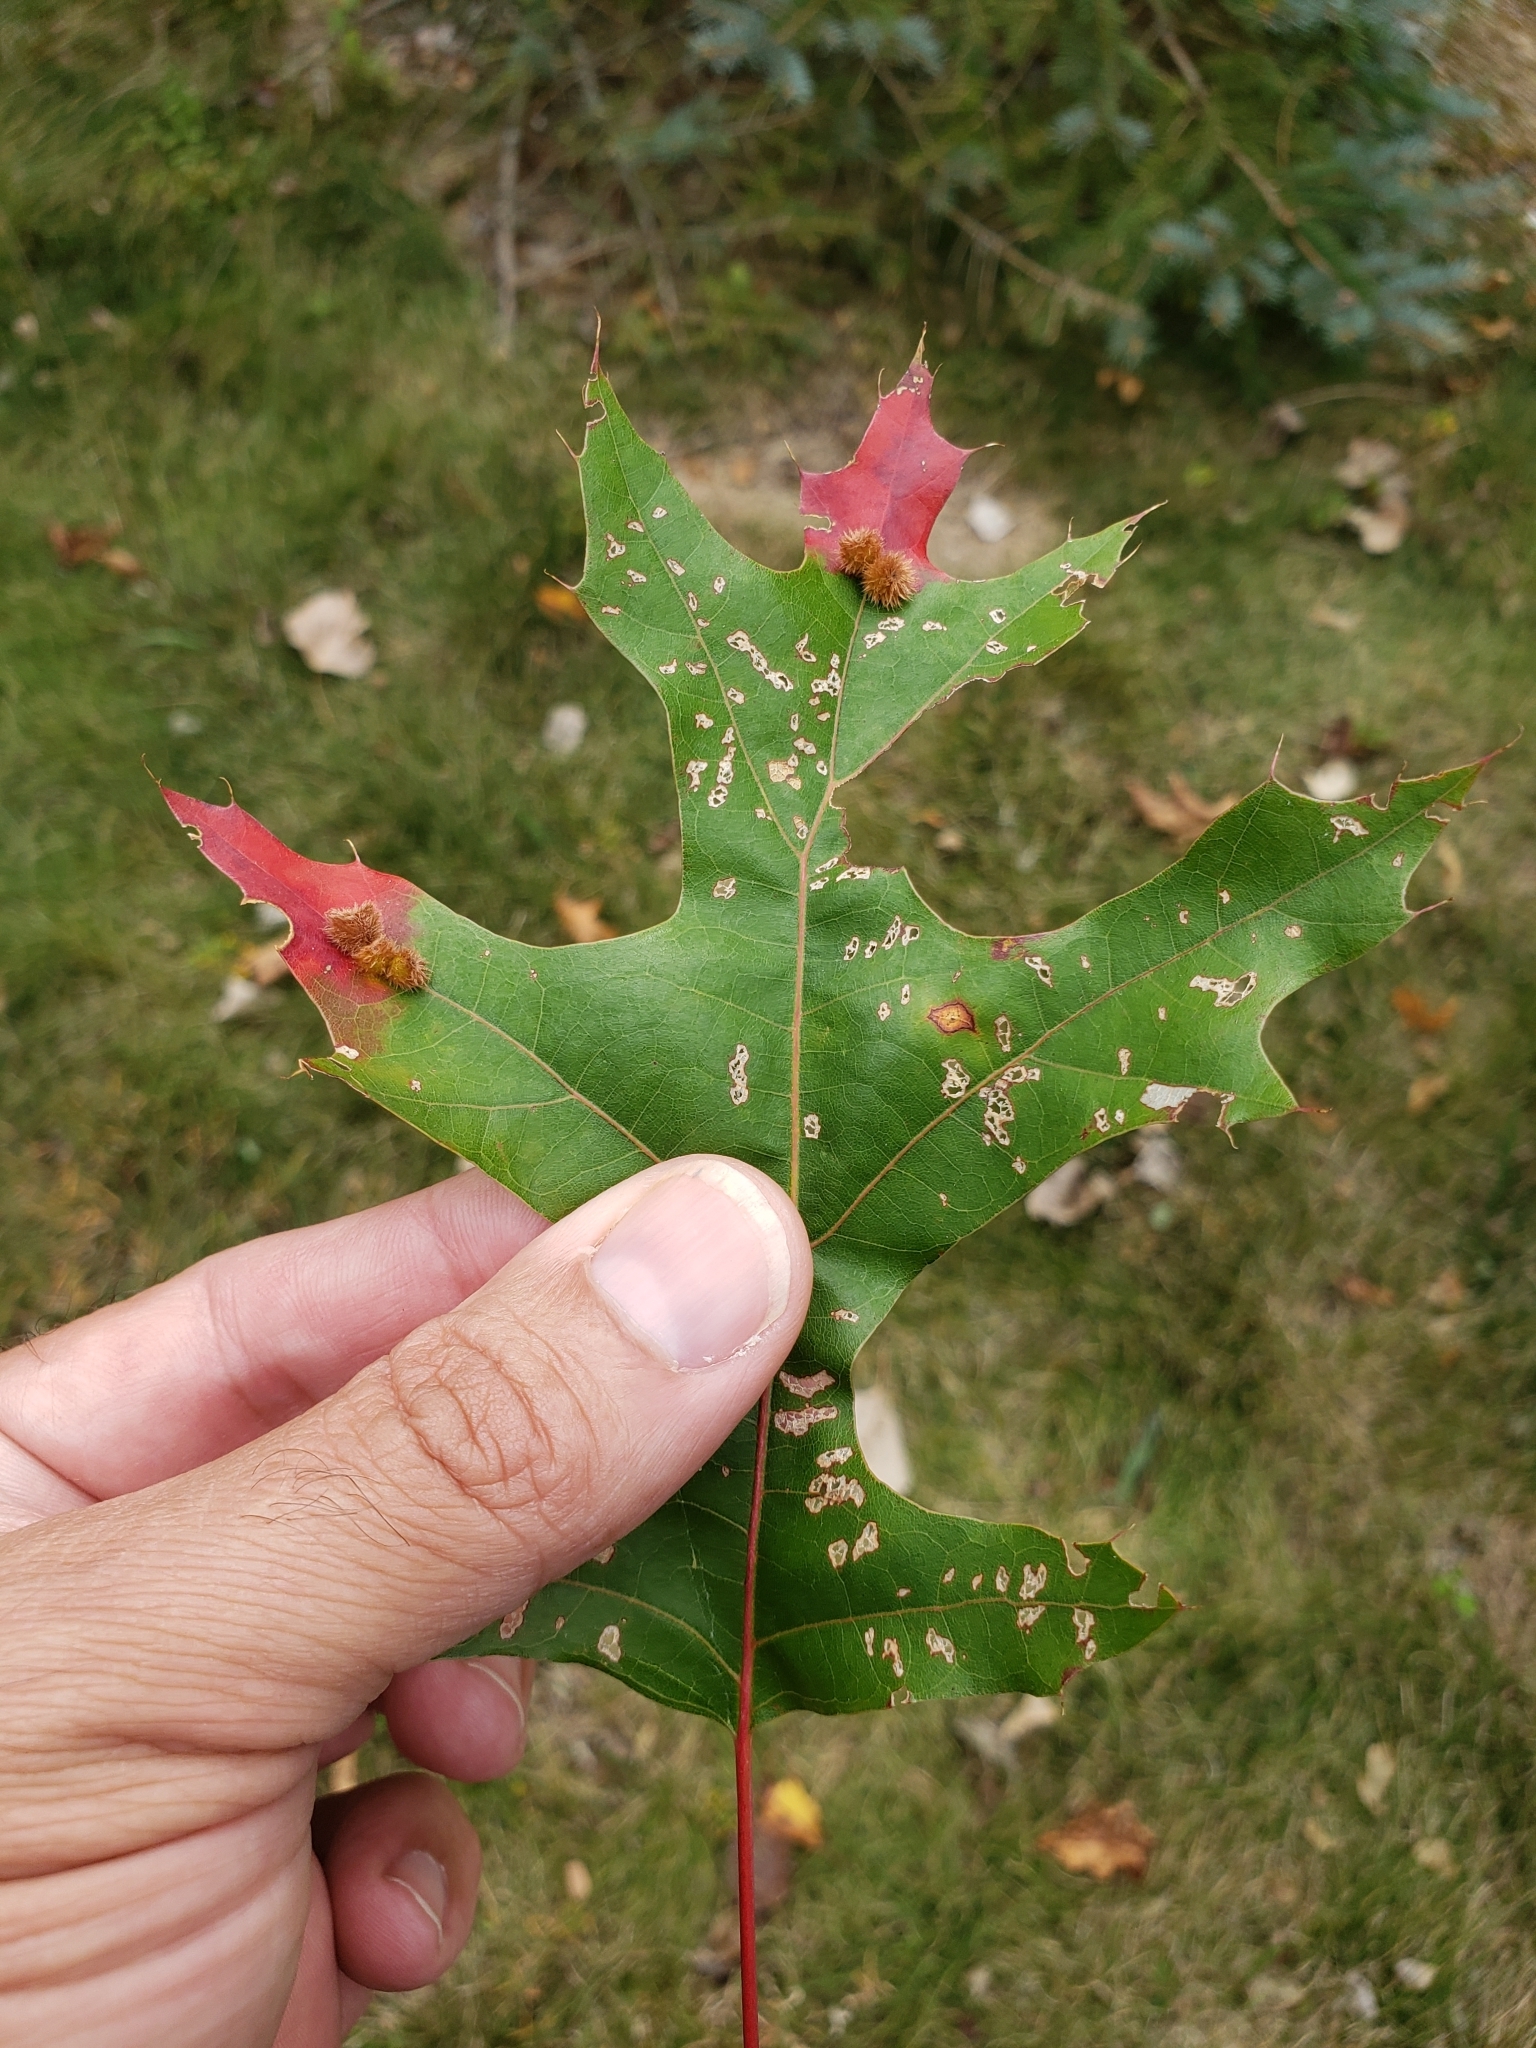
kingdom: Animalia
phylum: Arthropoda
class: Insecta
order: Hymenoptera
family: Cynipidae
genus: Callirhytis
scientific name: Callirhytis
